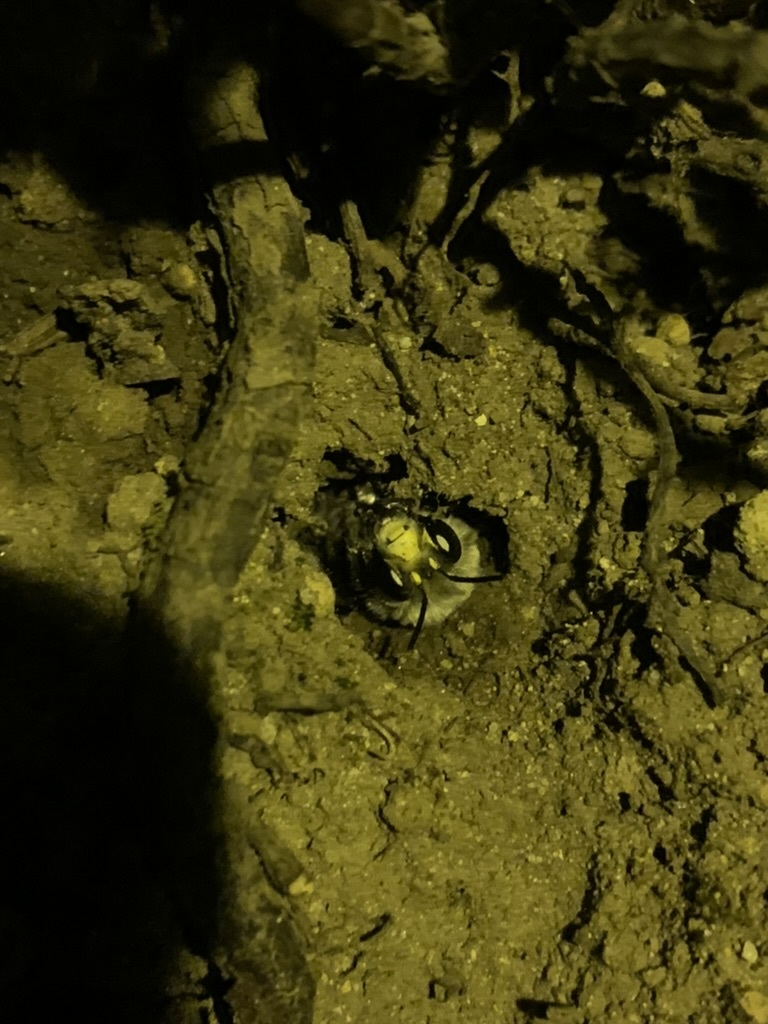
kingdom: Animalia
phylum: Arthropoda
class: Insecta
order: Hymenoptera
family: Apidae
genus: Anthophora
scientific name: Anthophora pacifica
